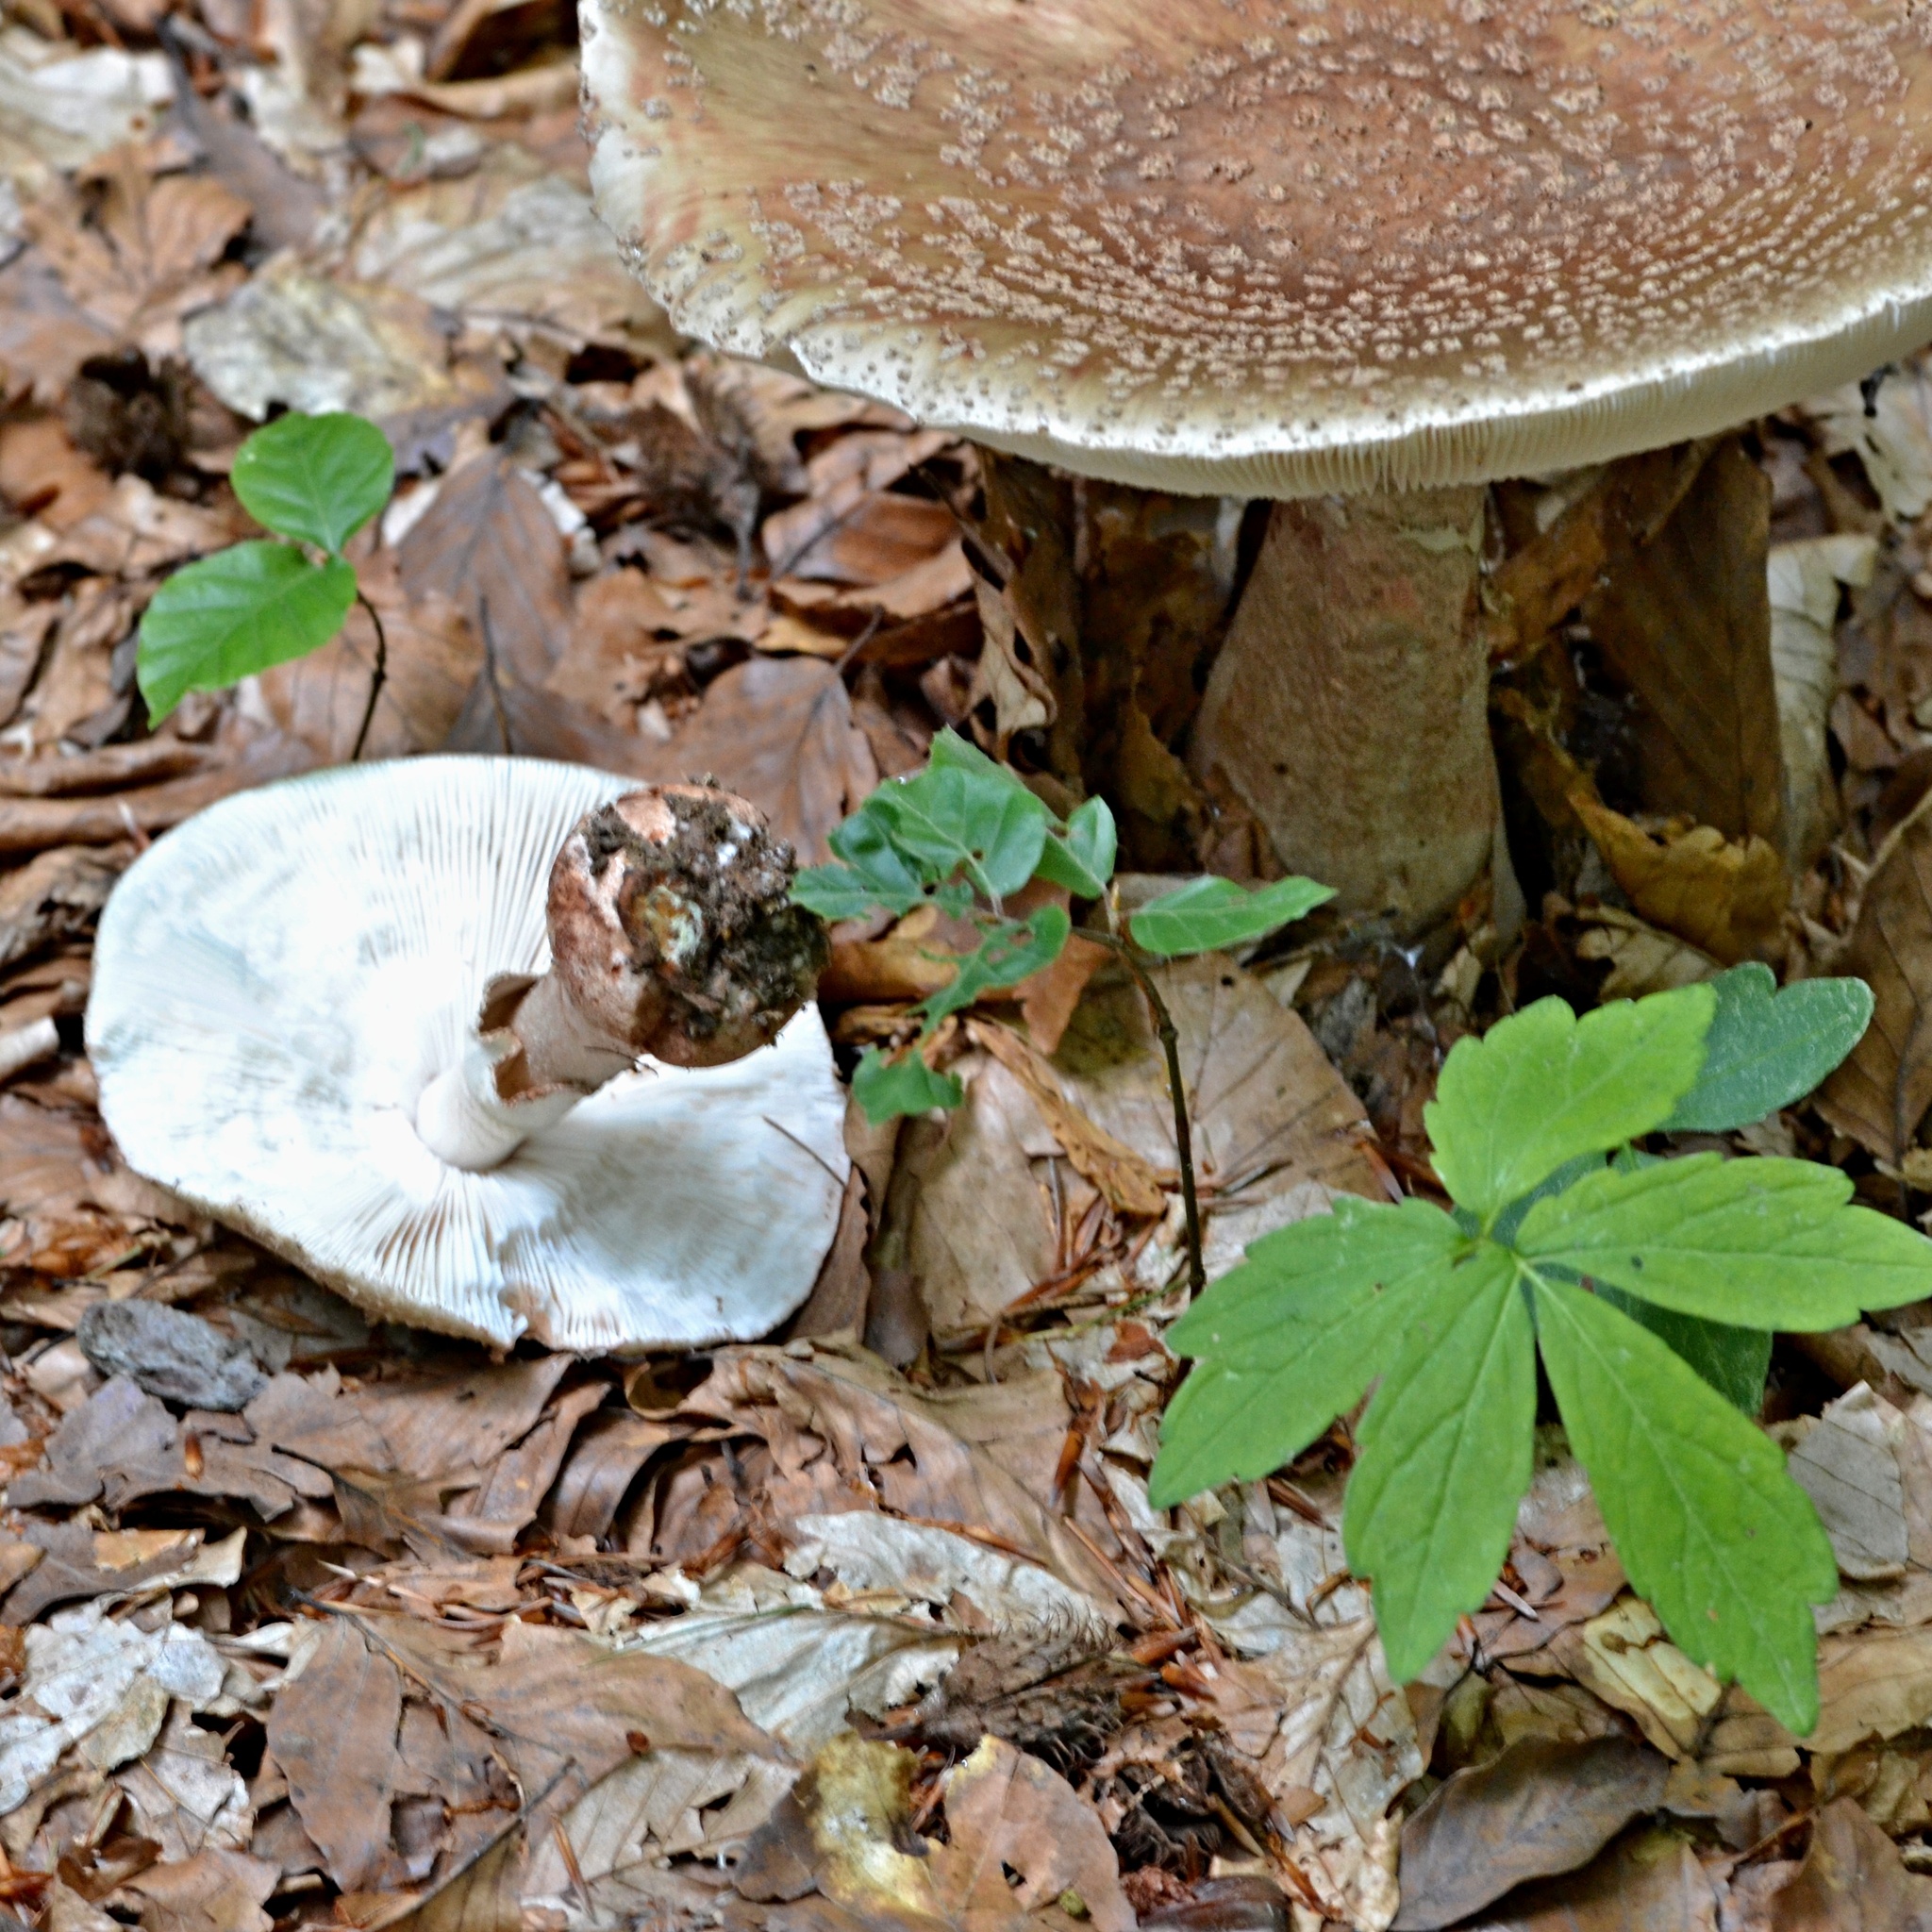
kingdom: Fungi
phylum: Basidiomycota
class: Agaricomycetes
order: Agaricales
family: Amanitaceae
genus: Amanita
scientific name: Amanita rubescens
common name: Blusher
